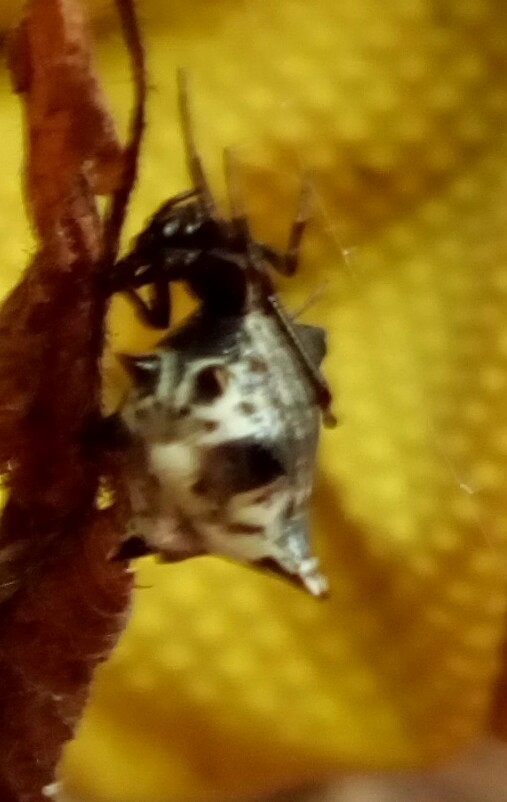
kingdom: Animalia
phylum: Arthropoda
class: Arachnida
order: Araneae
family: Araneidae
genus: Micrathena
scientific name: Micrathena gracilis
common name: Orb weavers
